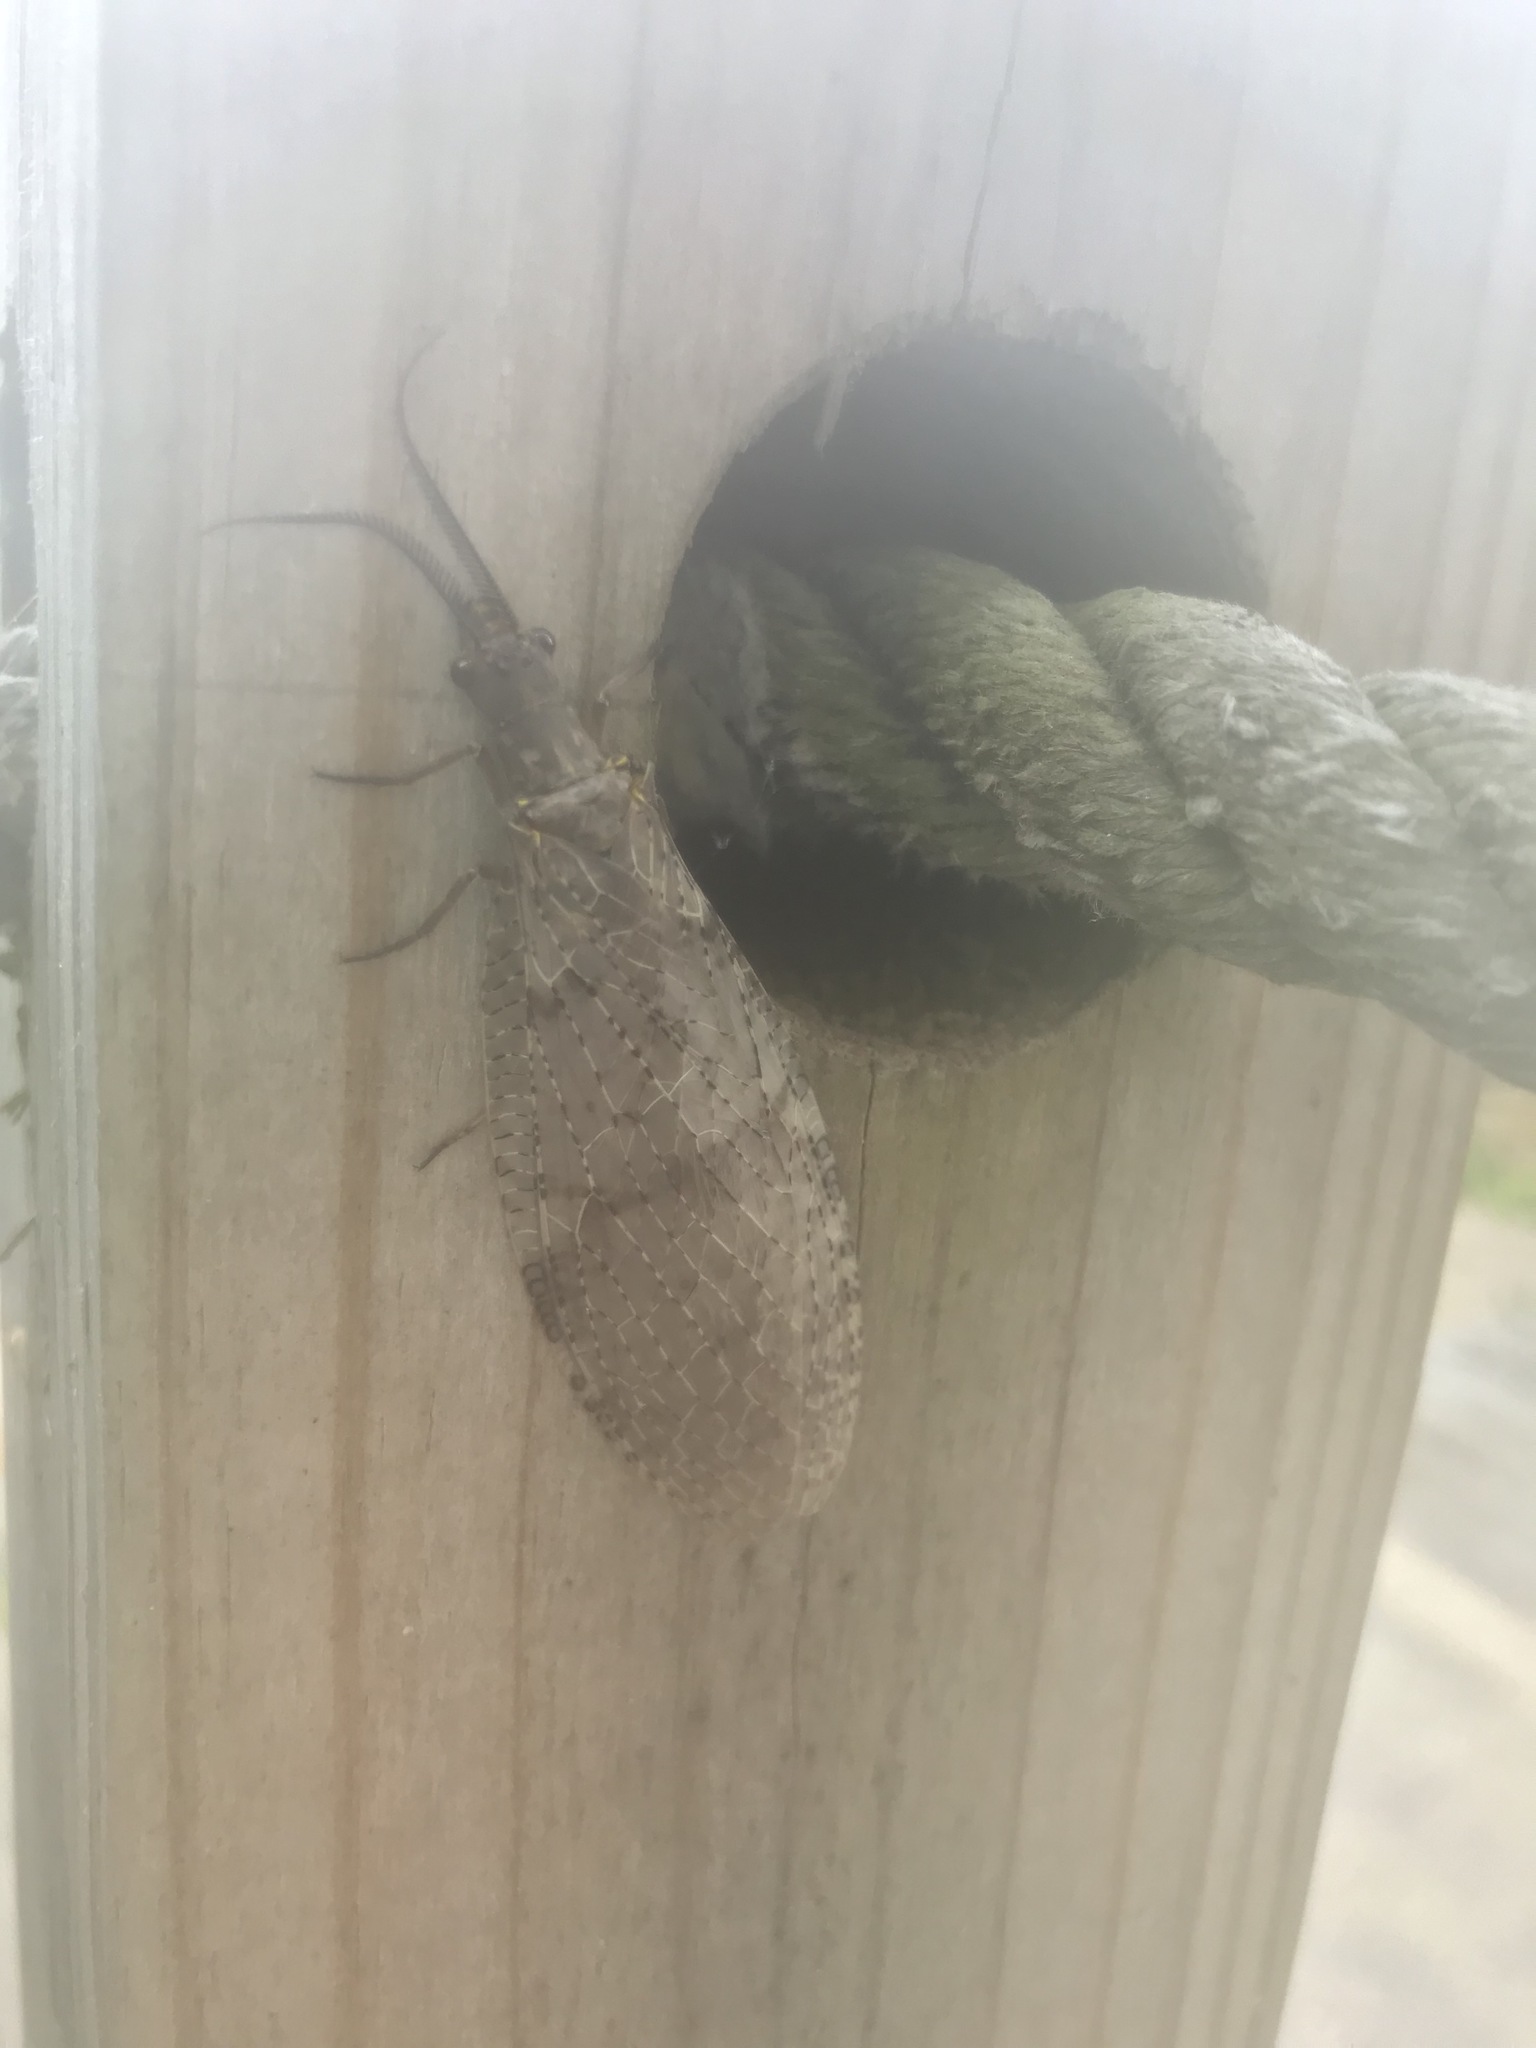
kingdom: Animalia
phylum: Arthropoda
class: Insecta
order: Megaloptera
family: Corydalidae
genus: Chauliodes
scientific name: Chauliodes pectinicornis
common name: Summer fishfly
